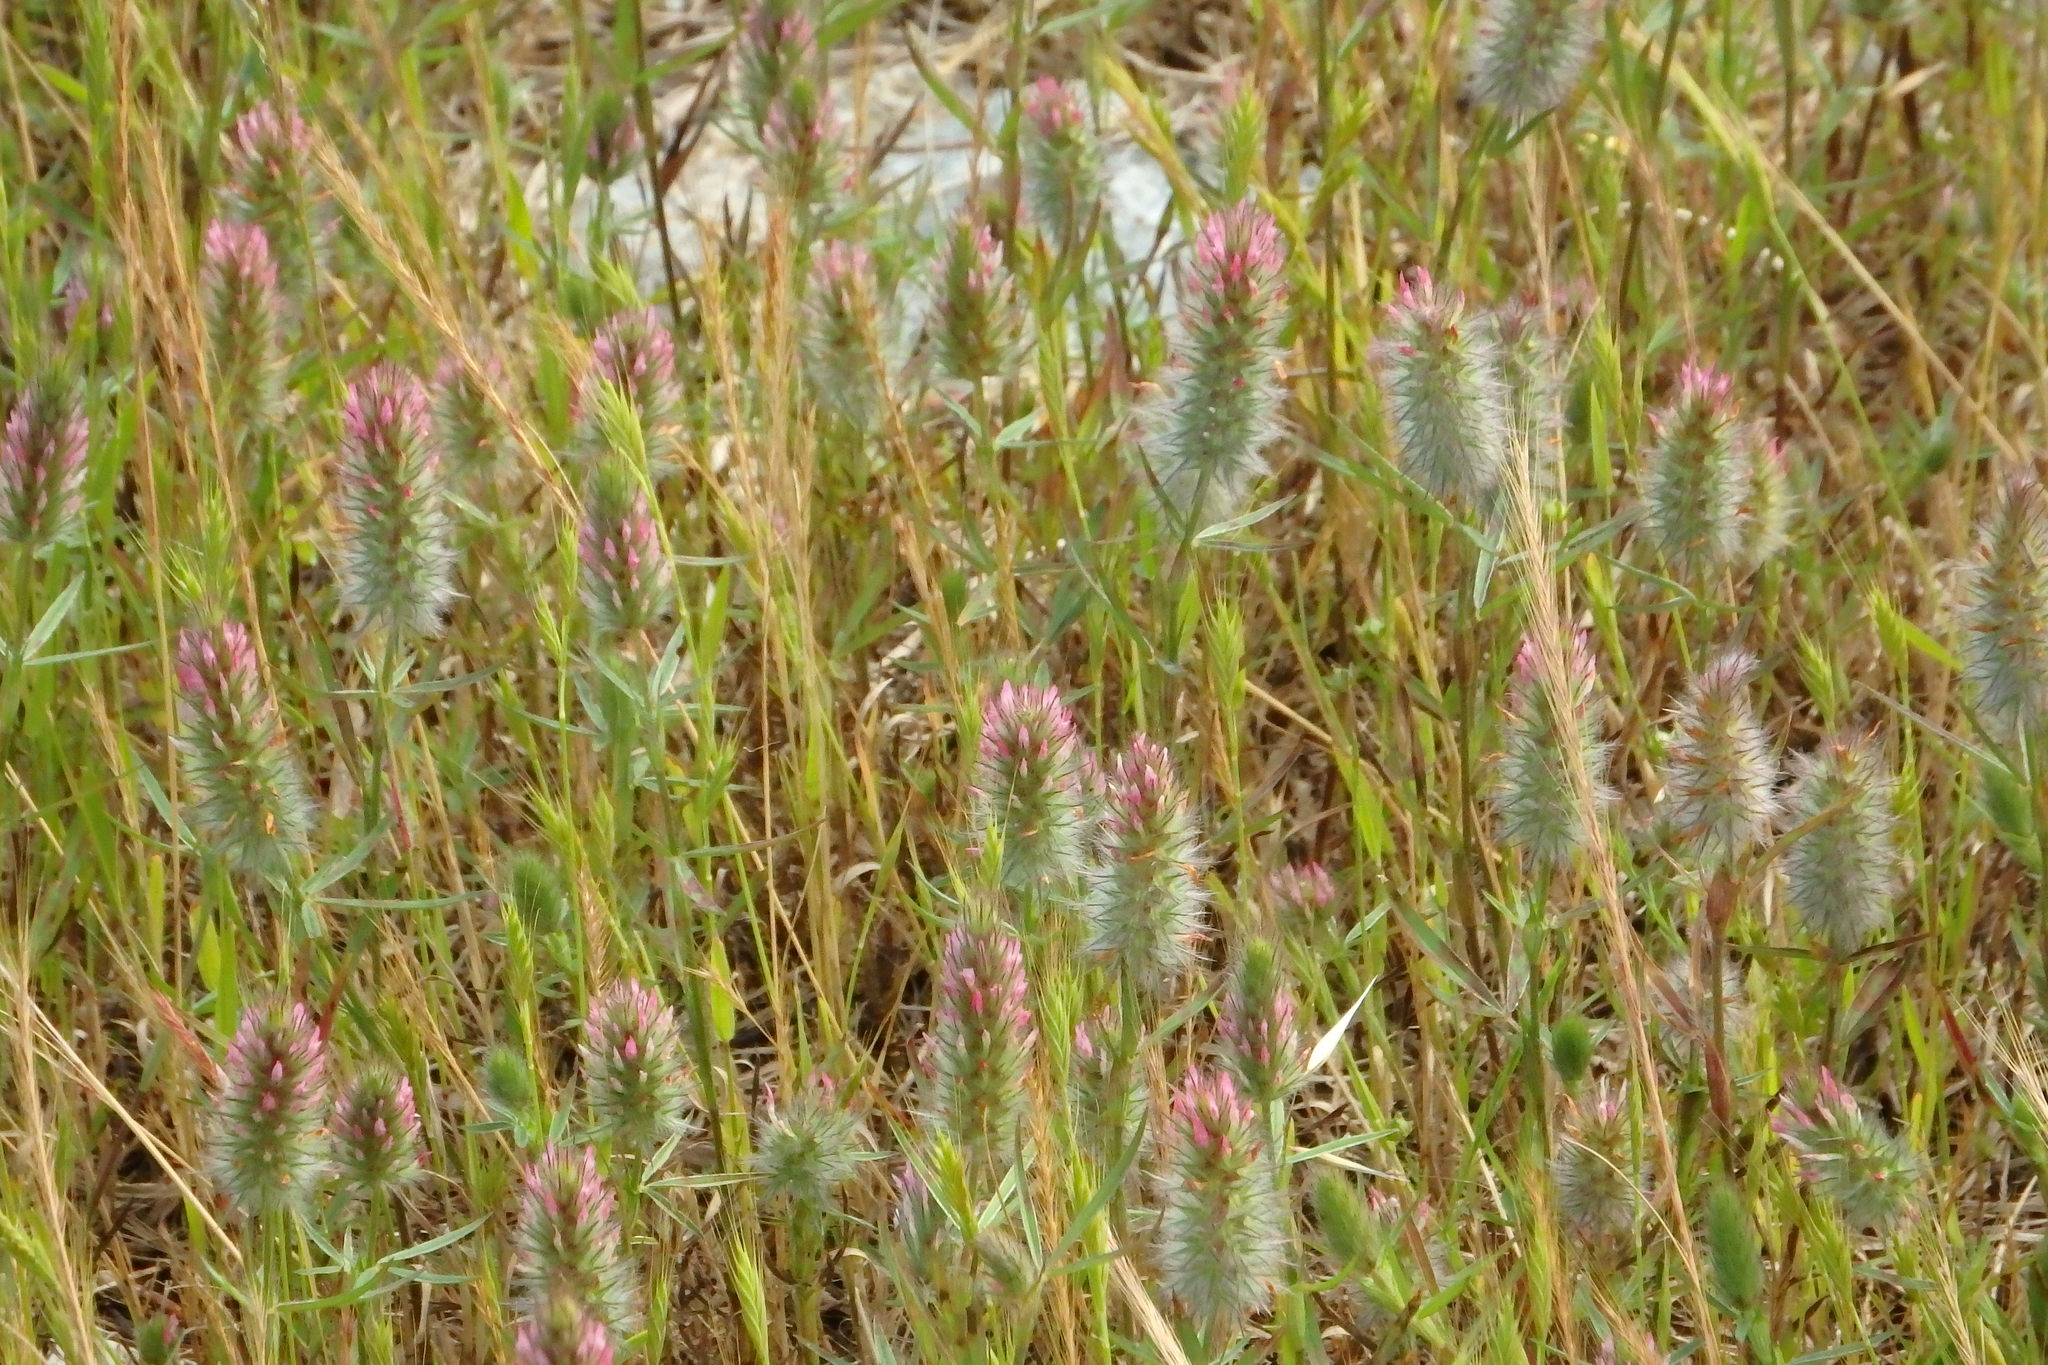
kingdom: Plantae
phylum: Tracheophyta
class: Magnoliopsida
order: Fabales
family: Fabaceae
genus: Trifolium
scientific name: Trifolium angustifolium
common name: Narrow clover
